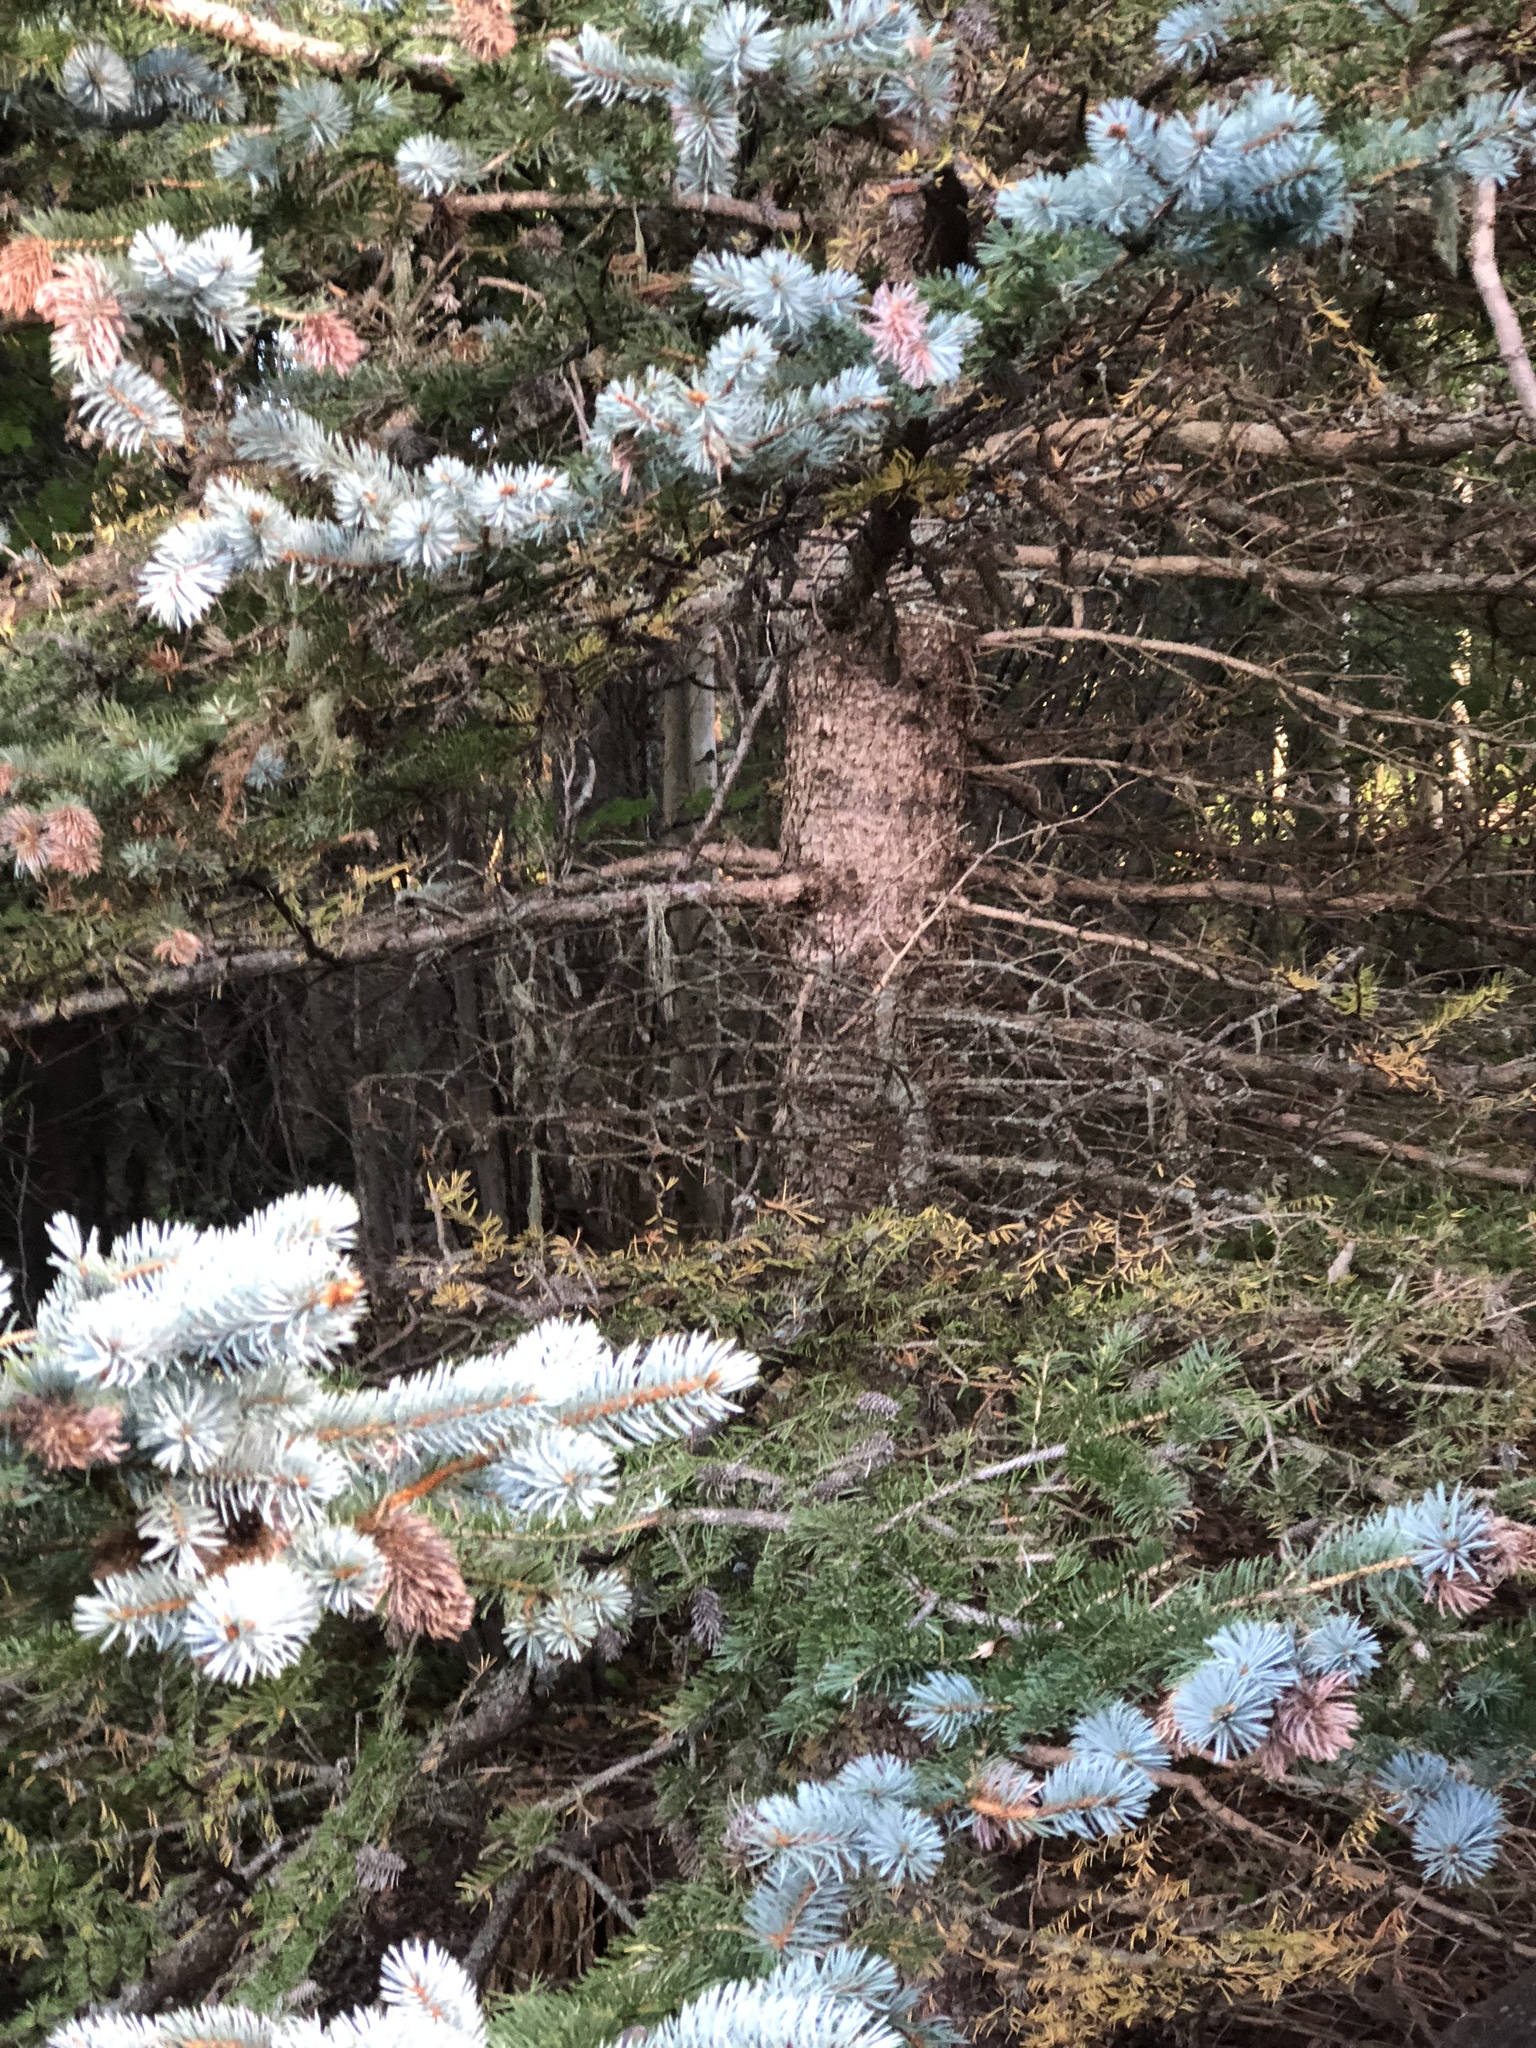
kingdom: Plantae
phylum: Tracheophyta
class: Pinopsida
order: Pinales
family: Pinaceae
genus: Picea
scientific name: Picea pungens
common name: Colorado spruce
